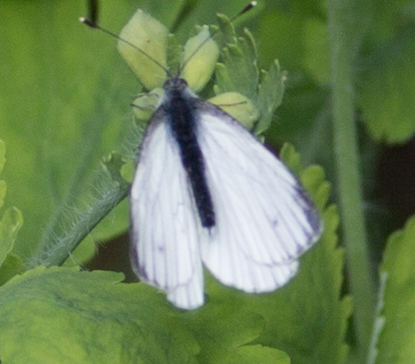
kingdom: Animalia
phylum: Arthropoda
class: Insecta
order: Lepidoptera
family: Pieridae
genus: Pieris
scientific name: Pieris napi
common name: Green-veined white
